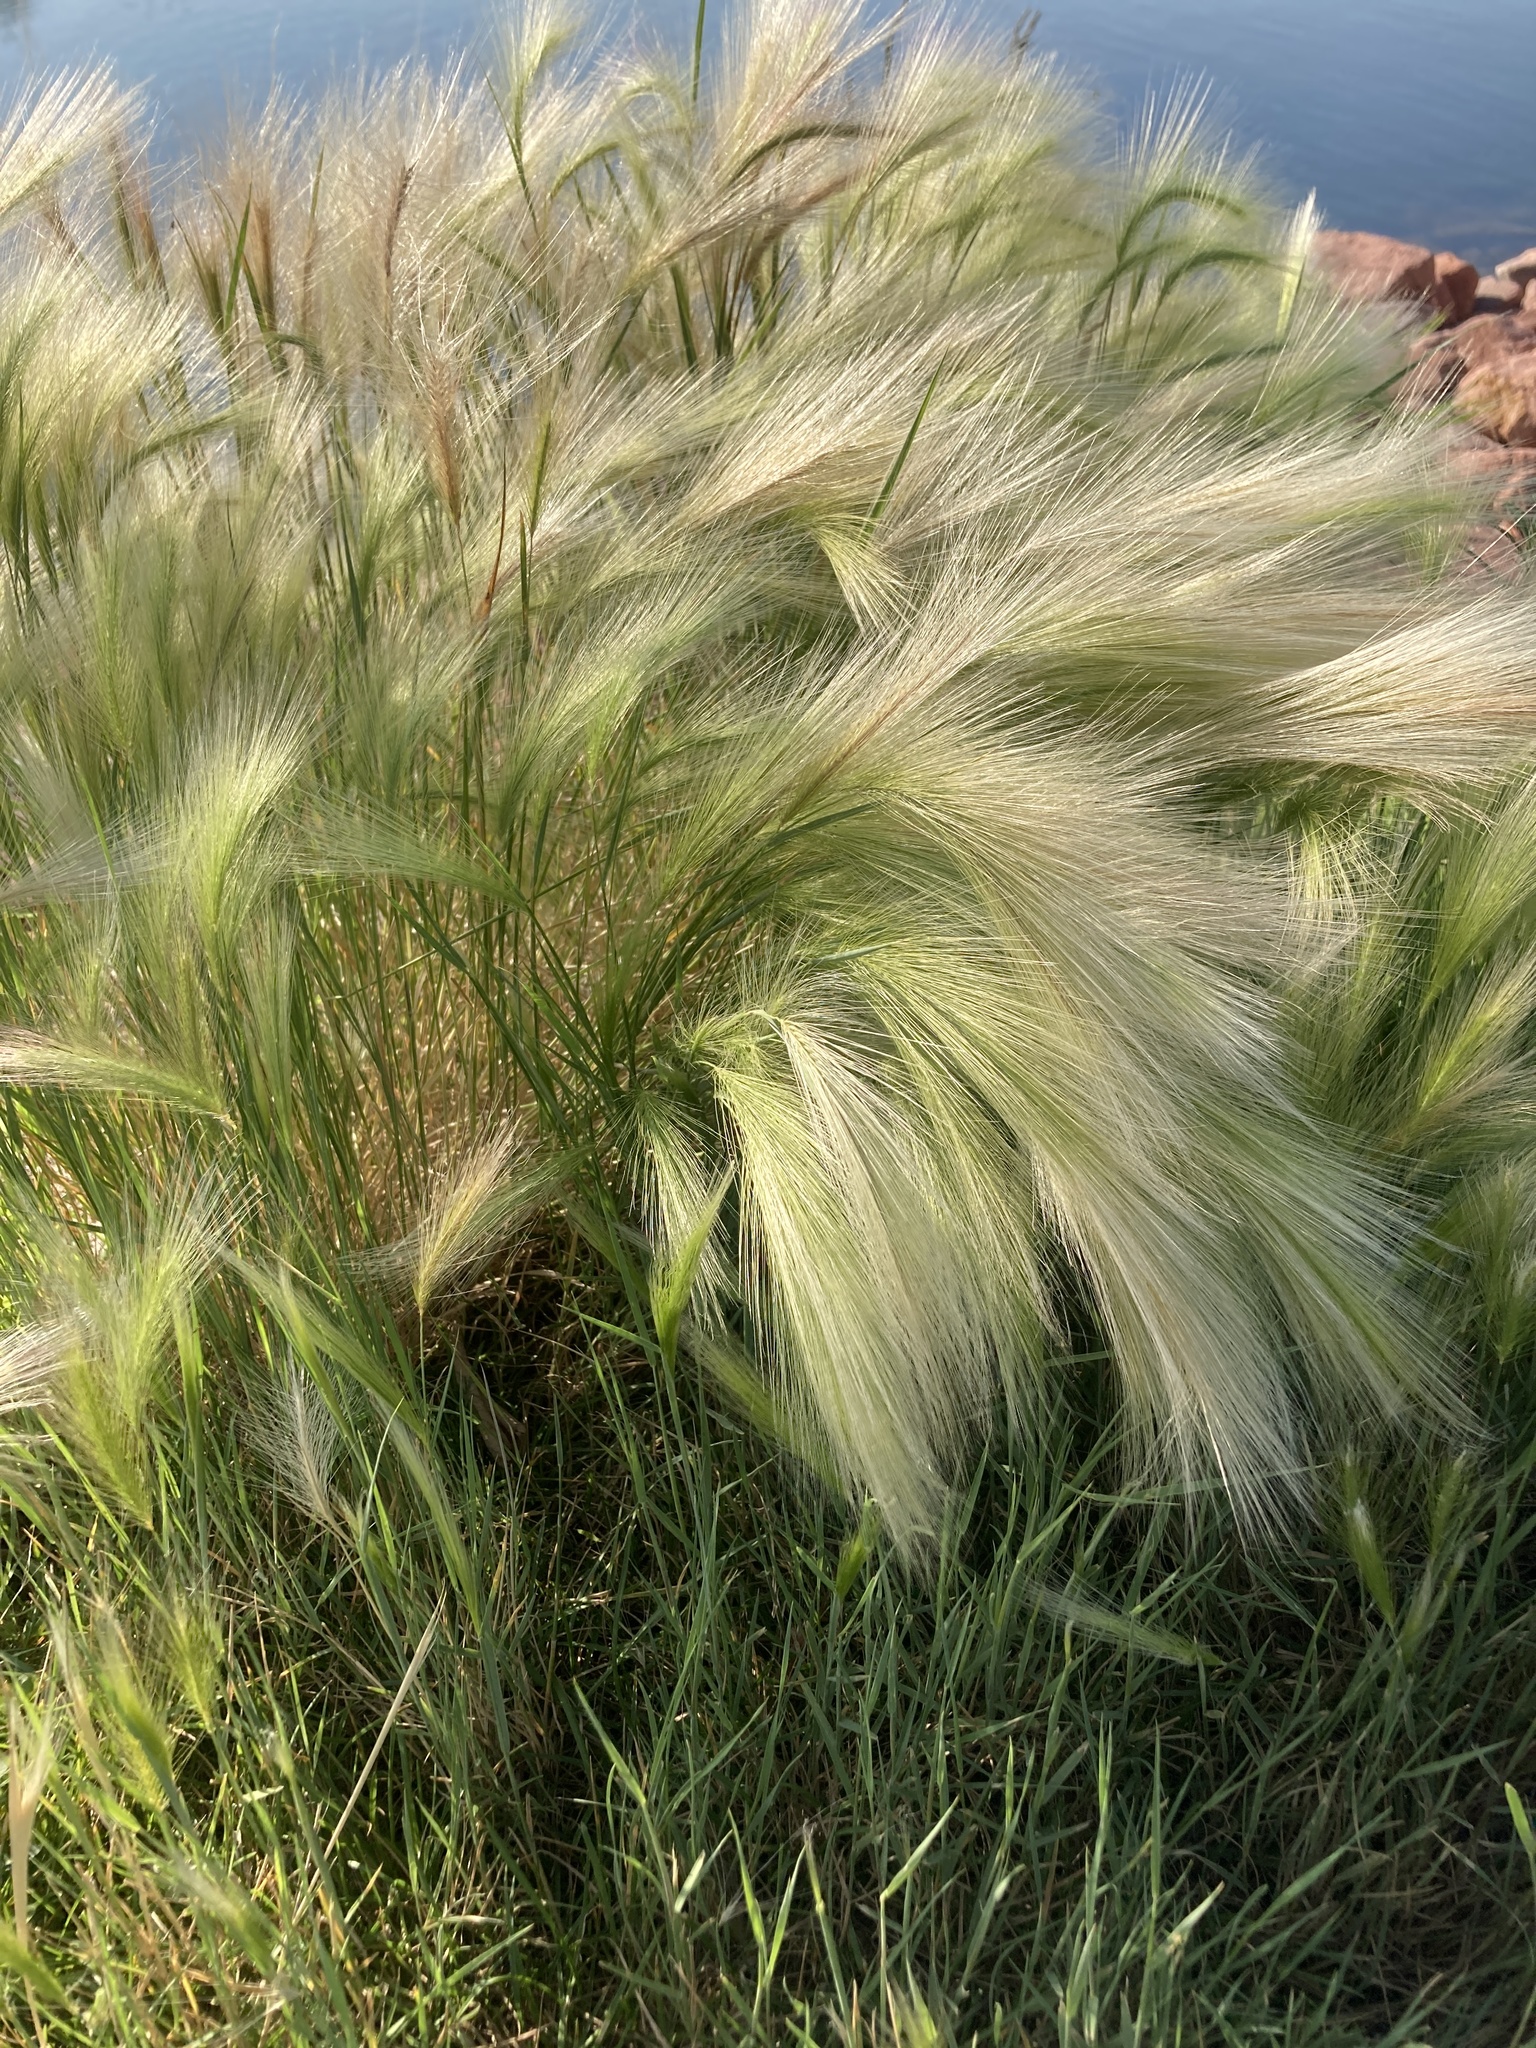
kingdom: Plantae
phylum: Tracheophyta
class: Liliopsida
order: Poales
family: Poaceae
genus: Hordeum
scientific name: Hordeum jubatum
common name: Foxtail barley
